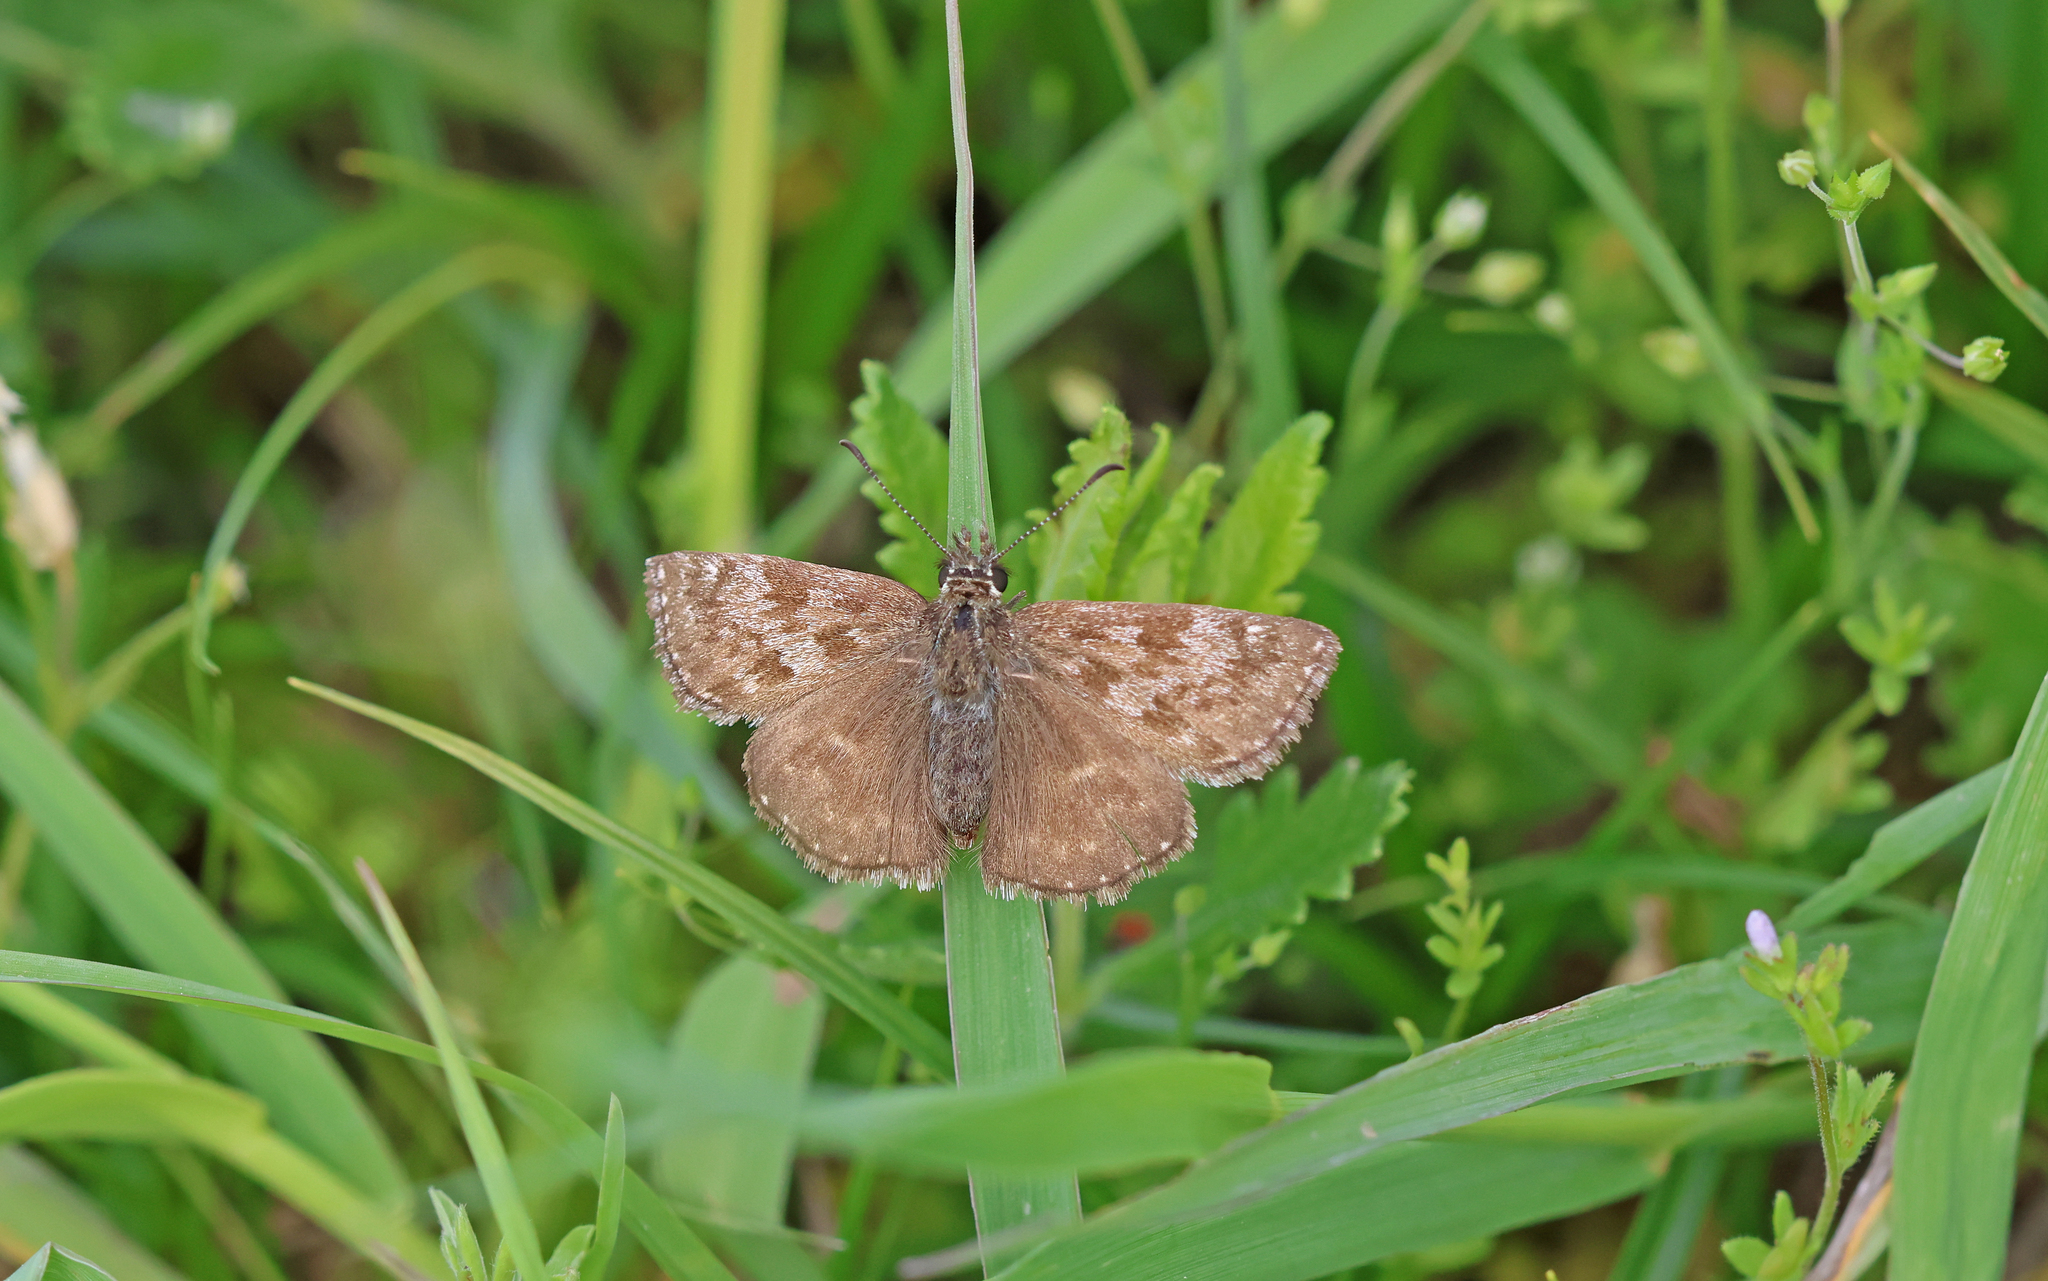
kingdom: Animalia
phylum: Arthropoda
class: Insecta
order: Lepidoptera
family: Hesperiidae
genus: Erynnis
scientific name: Erynnis tages
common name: Dingy skipper
